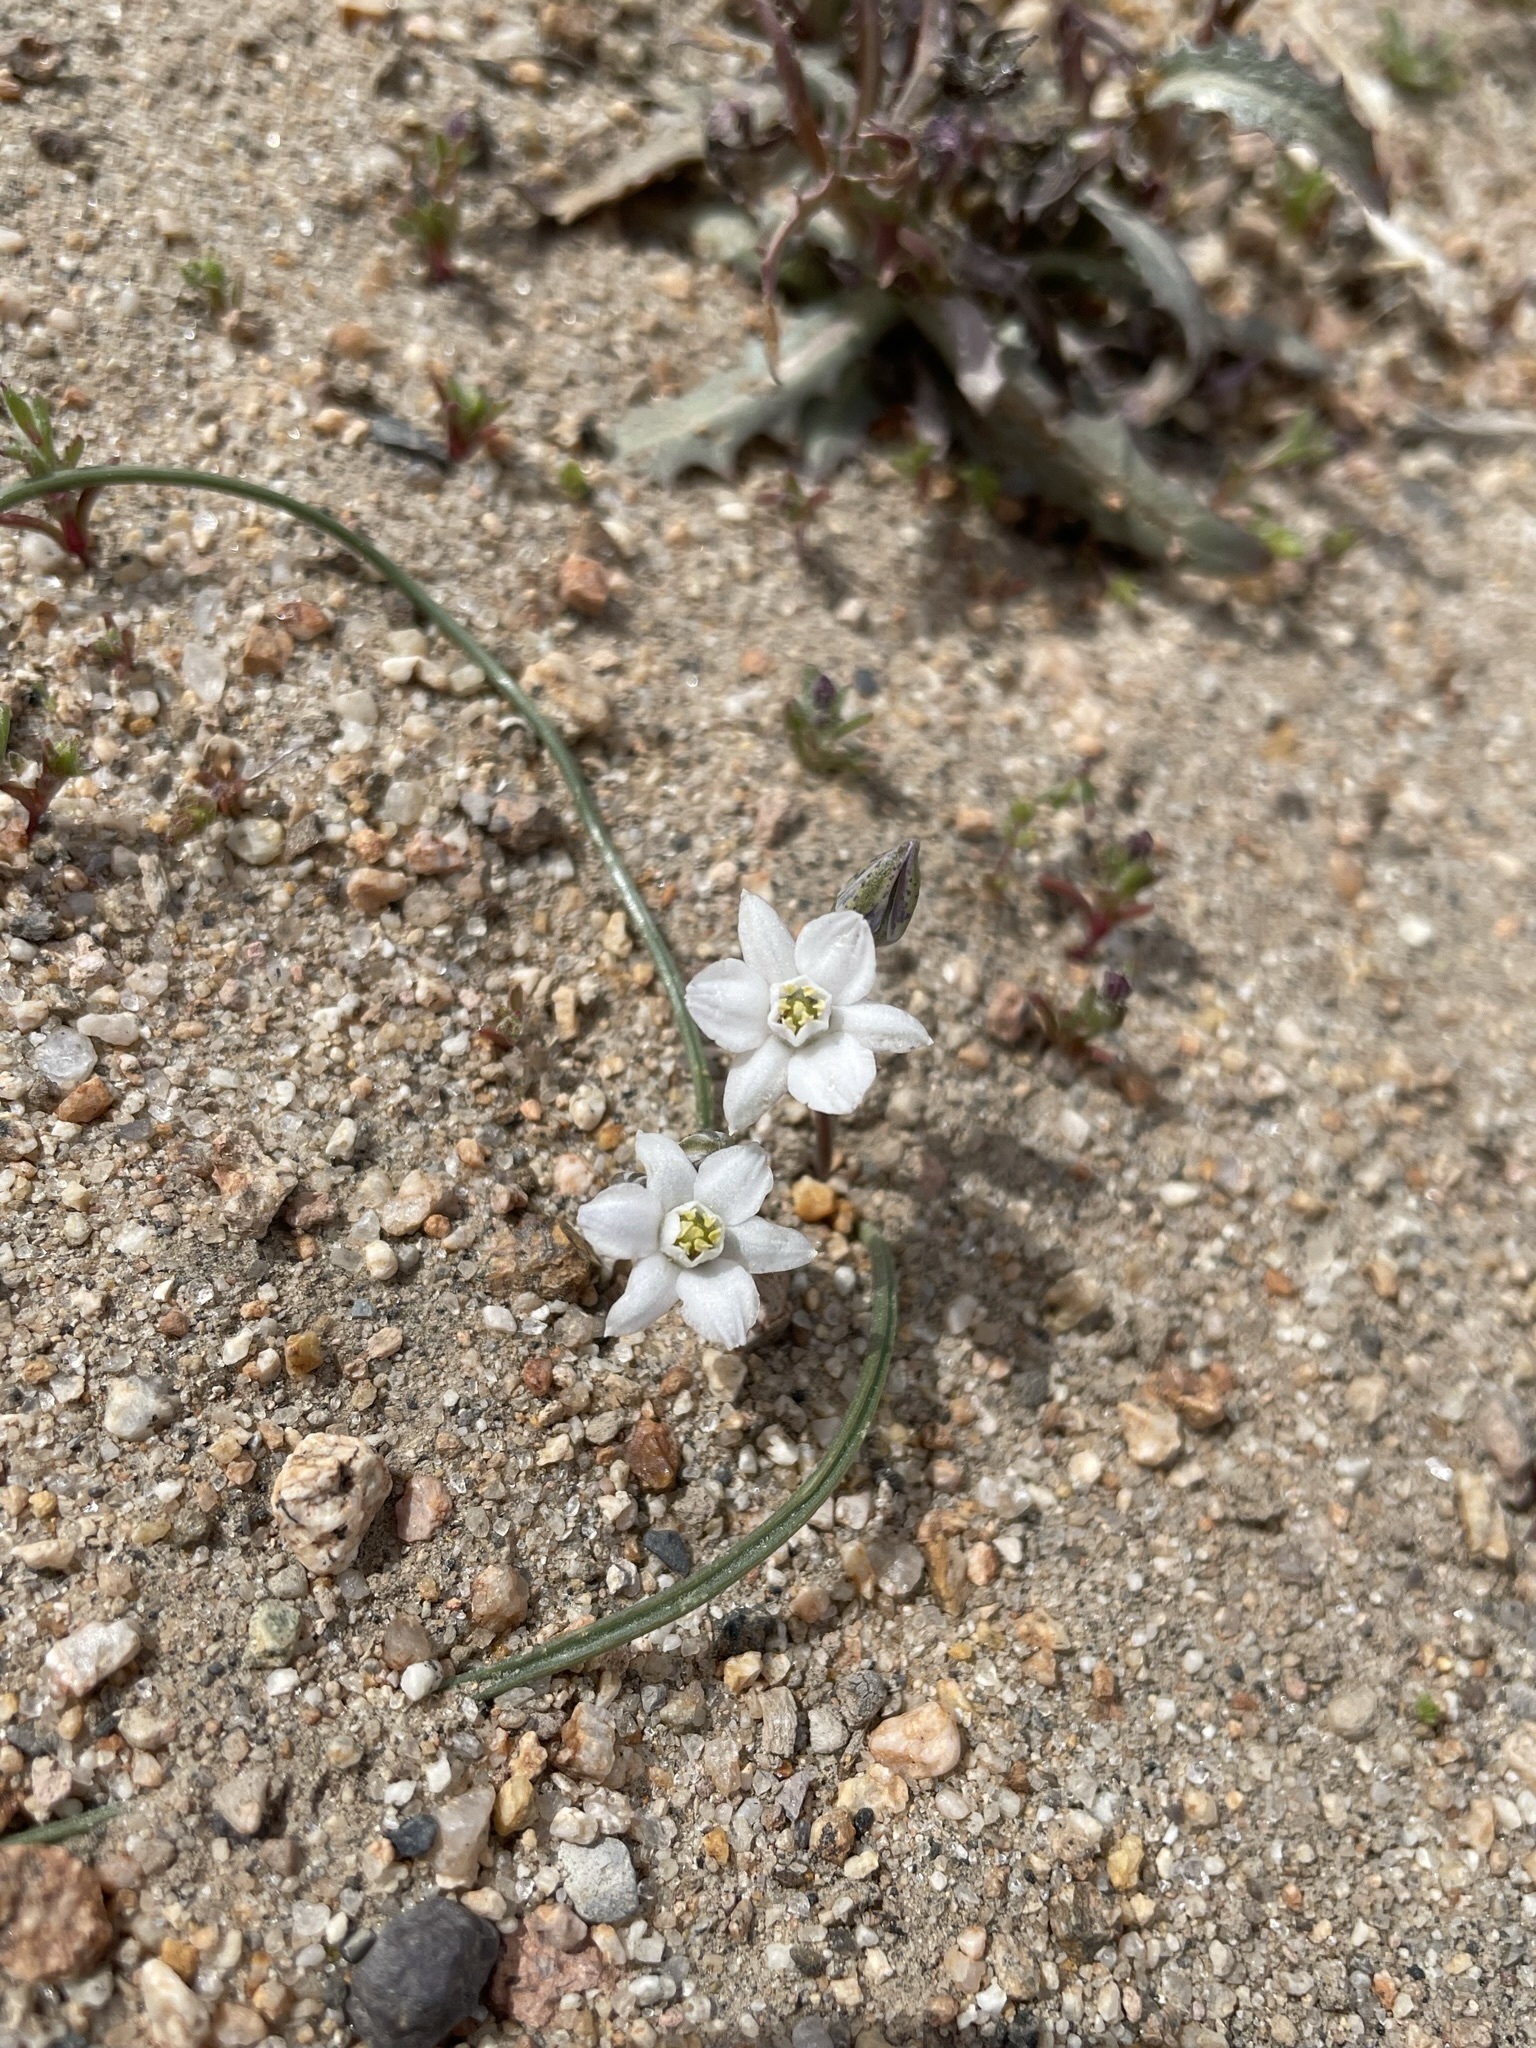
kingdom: Plantae
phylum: Tracheophyta
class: Liliopsida
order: Asparagales
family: Asparagaceae
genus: Muilla
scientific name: Muilla coronata
